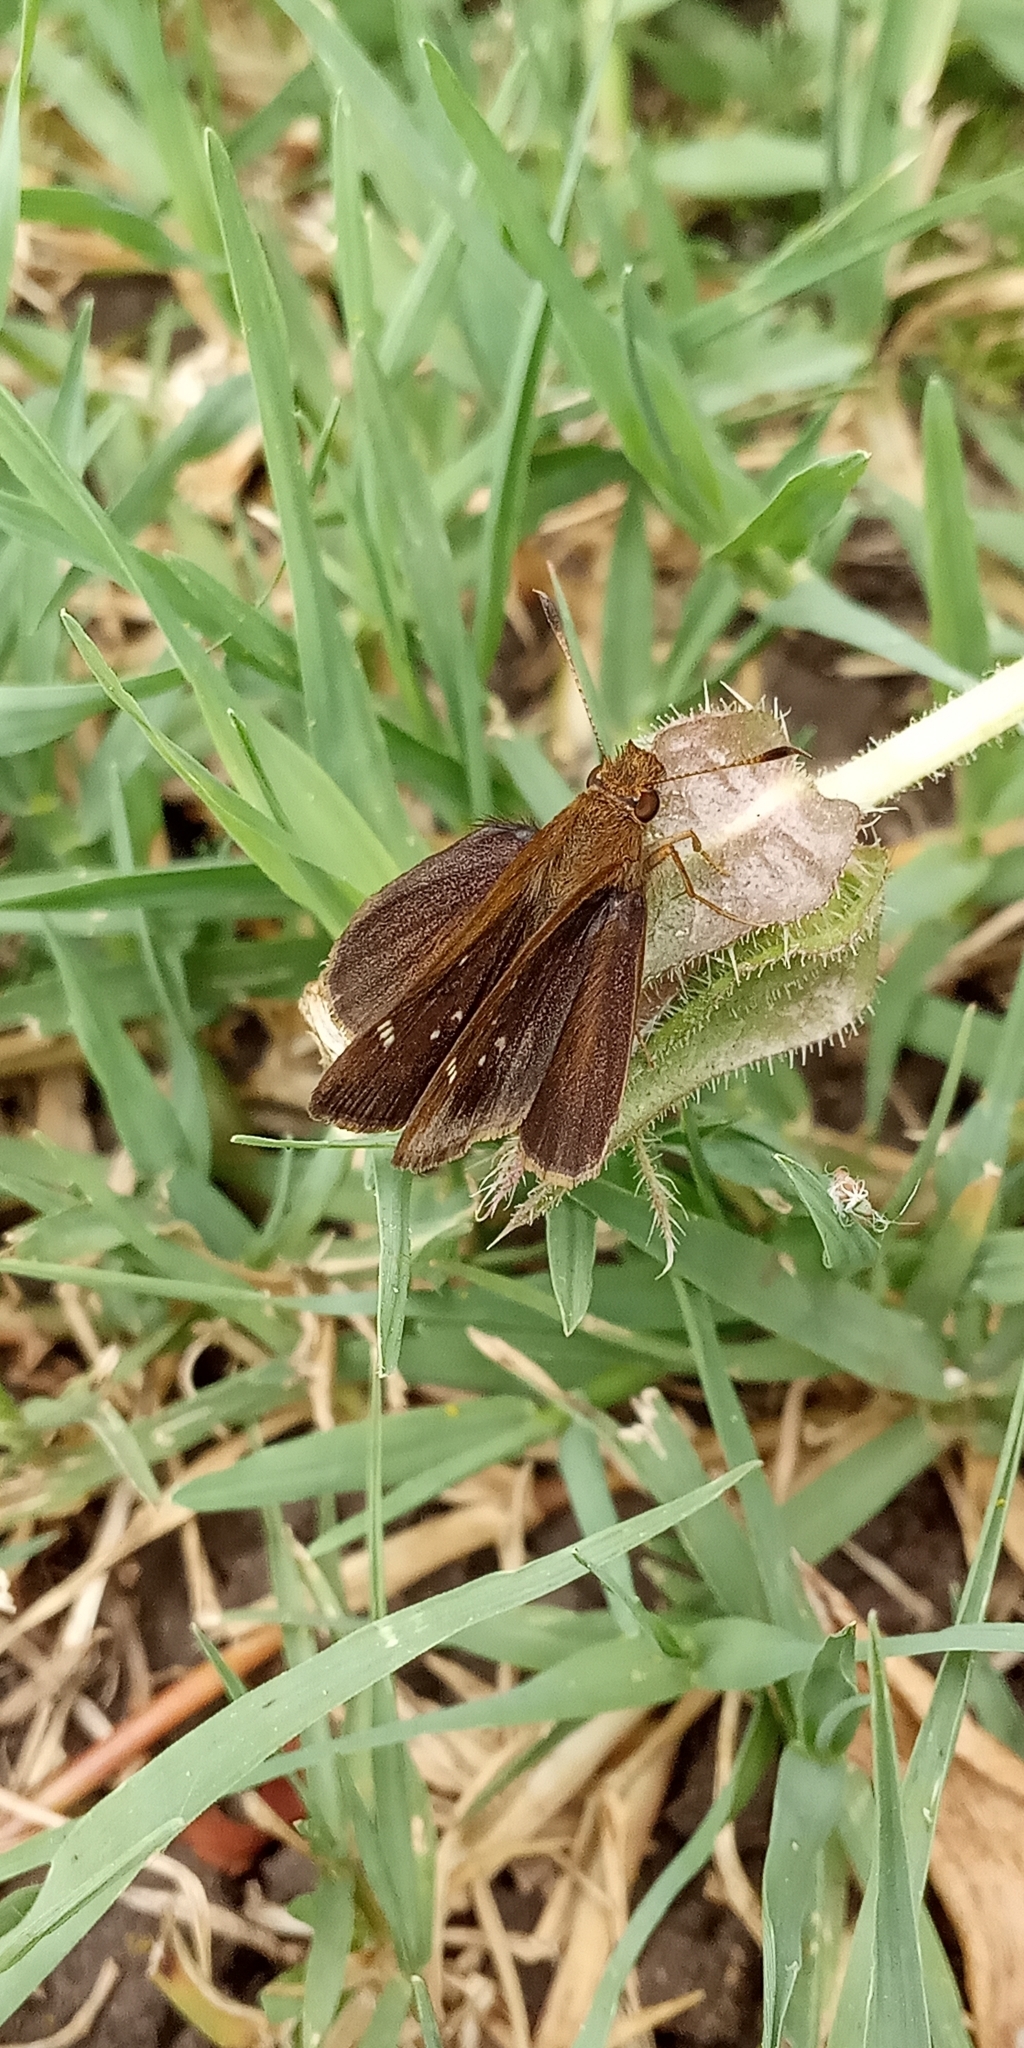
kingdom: Animalia
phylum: Arthropoda
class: Insecta
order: Lepidoptera
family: Hesperiidae
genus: Cymaenes
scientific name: Cymaenes
